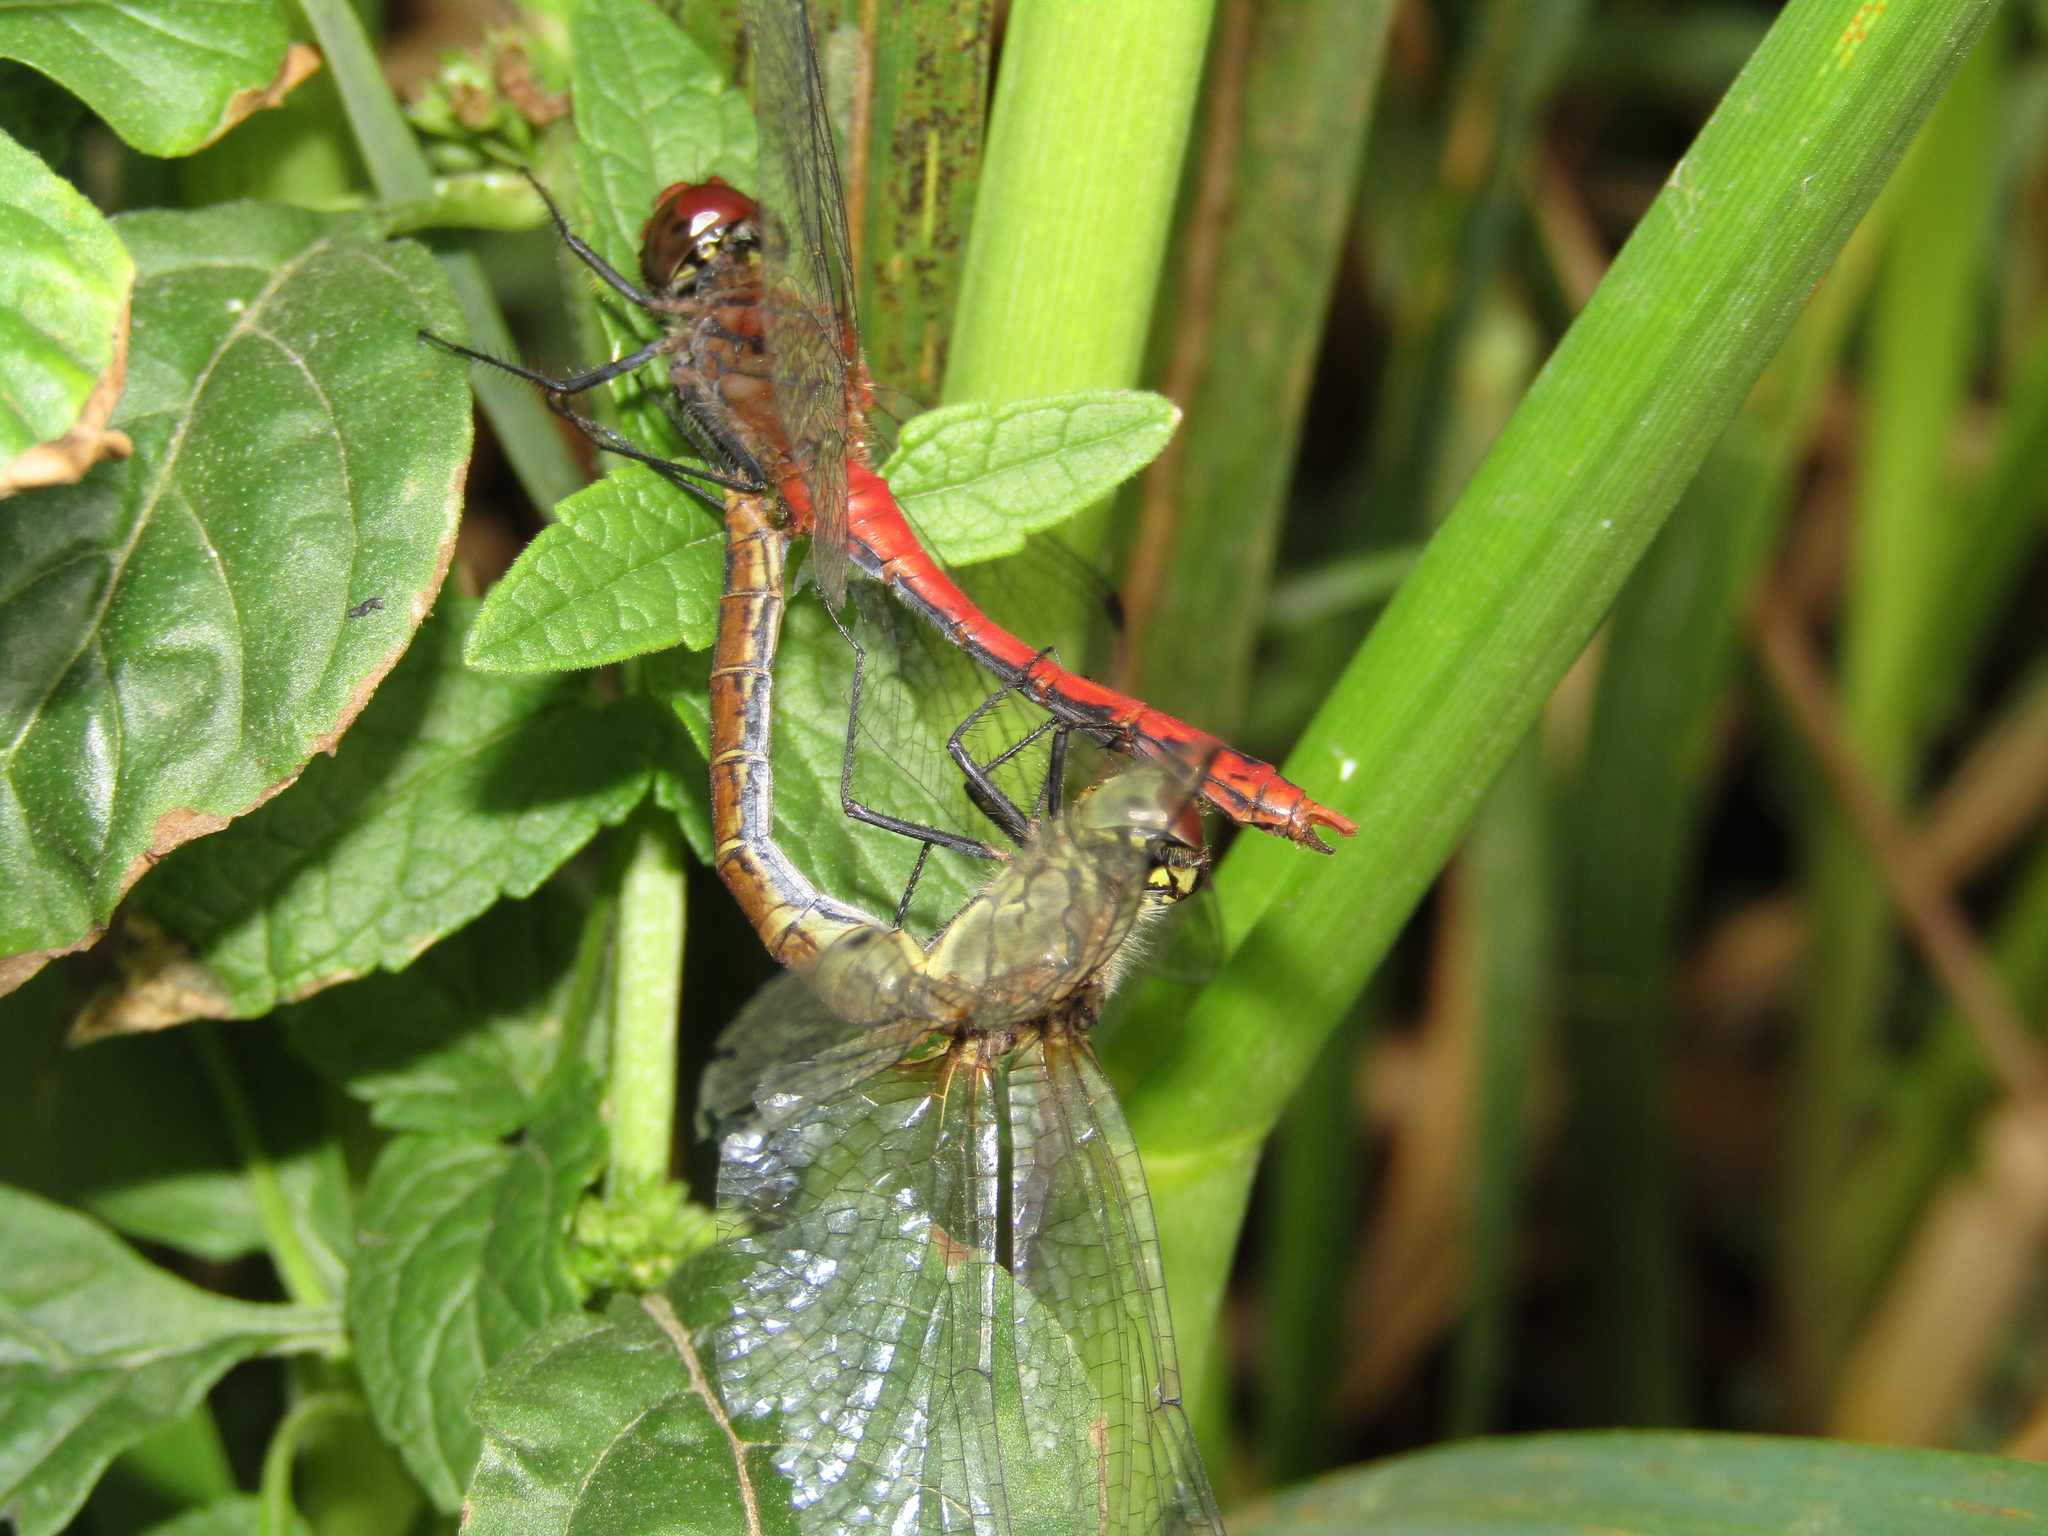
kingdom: Animalia
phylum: Arthropoda
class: Insecta
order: Odonata
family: Libellulidae
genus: Sympetrum
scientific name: Sympetrum sanguineum
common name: Ruddy darter
